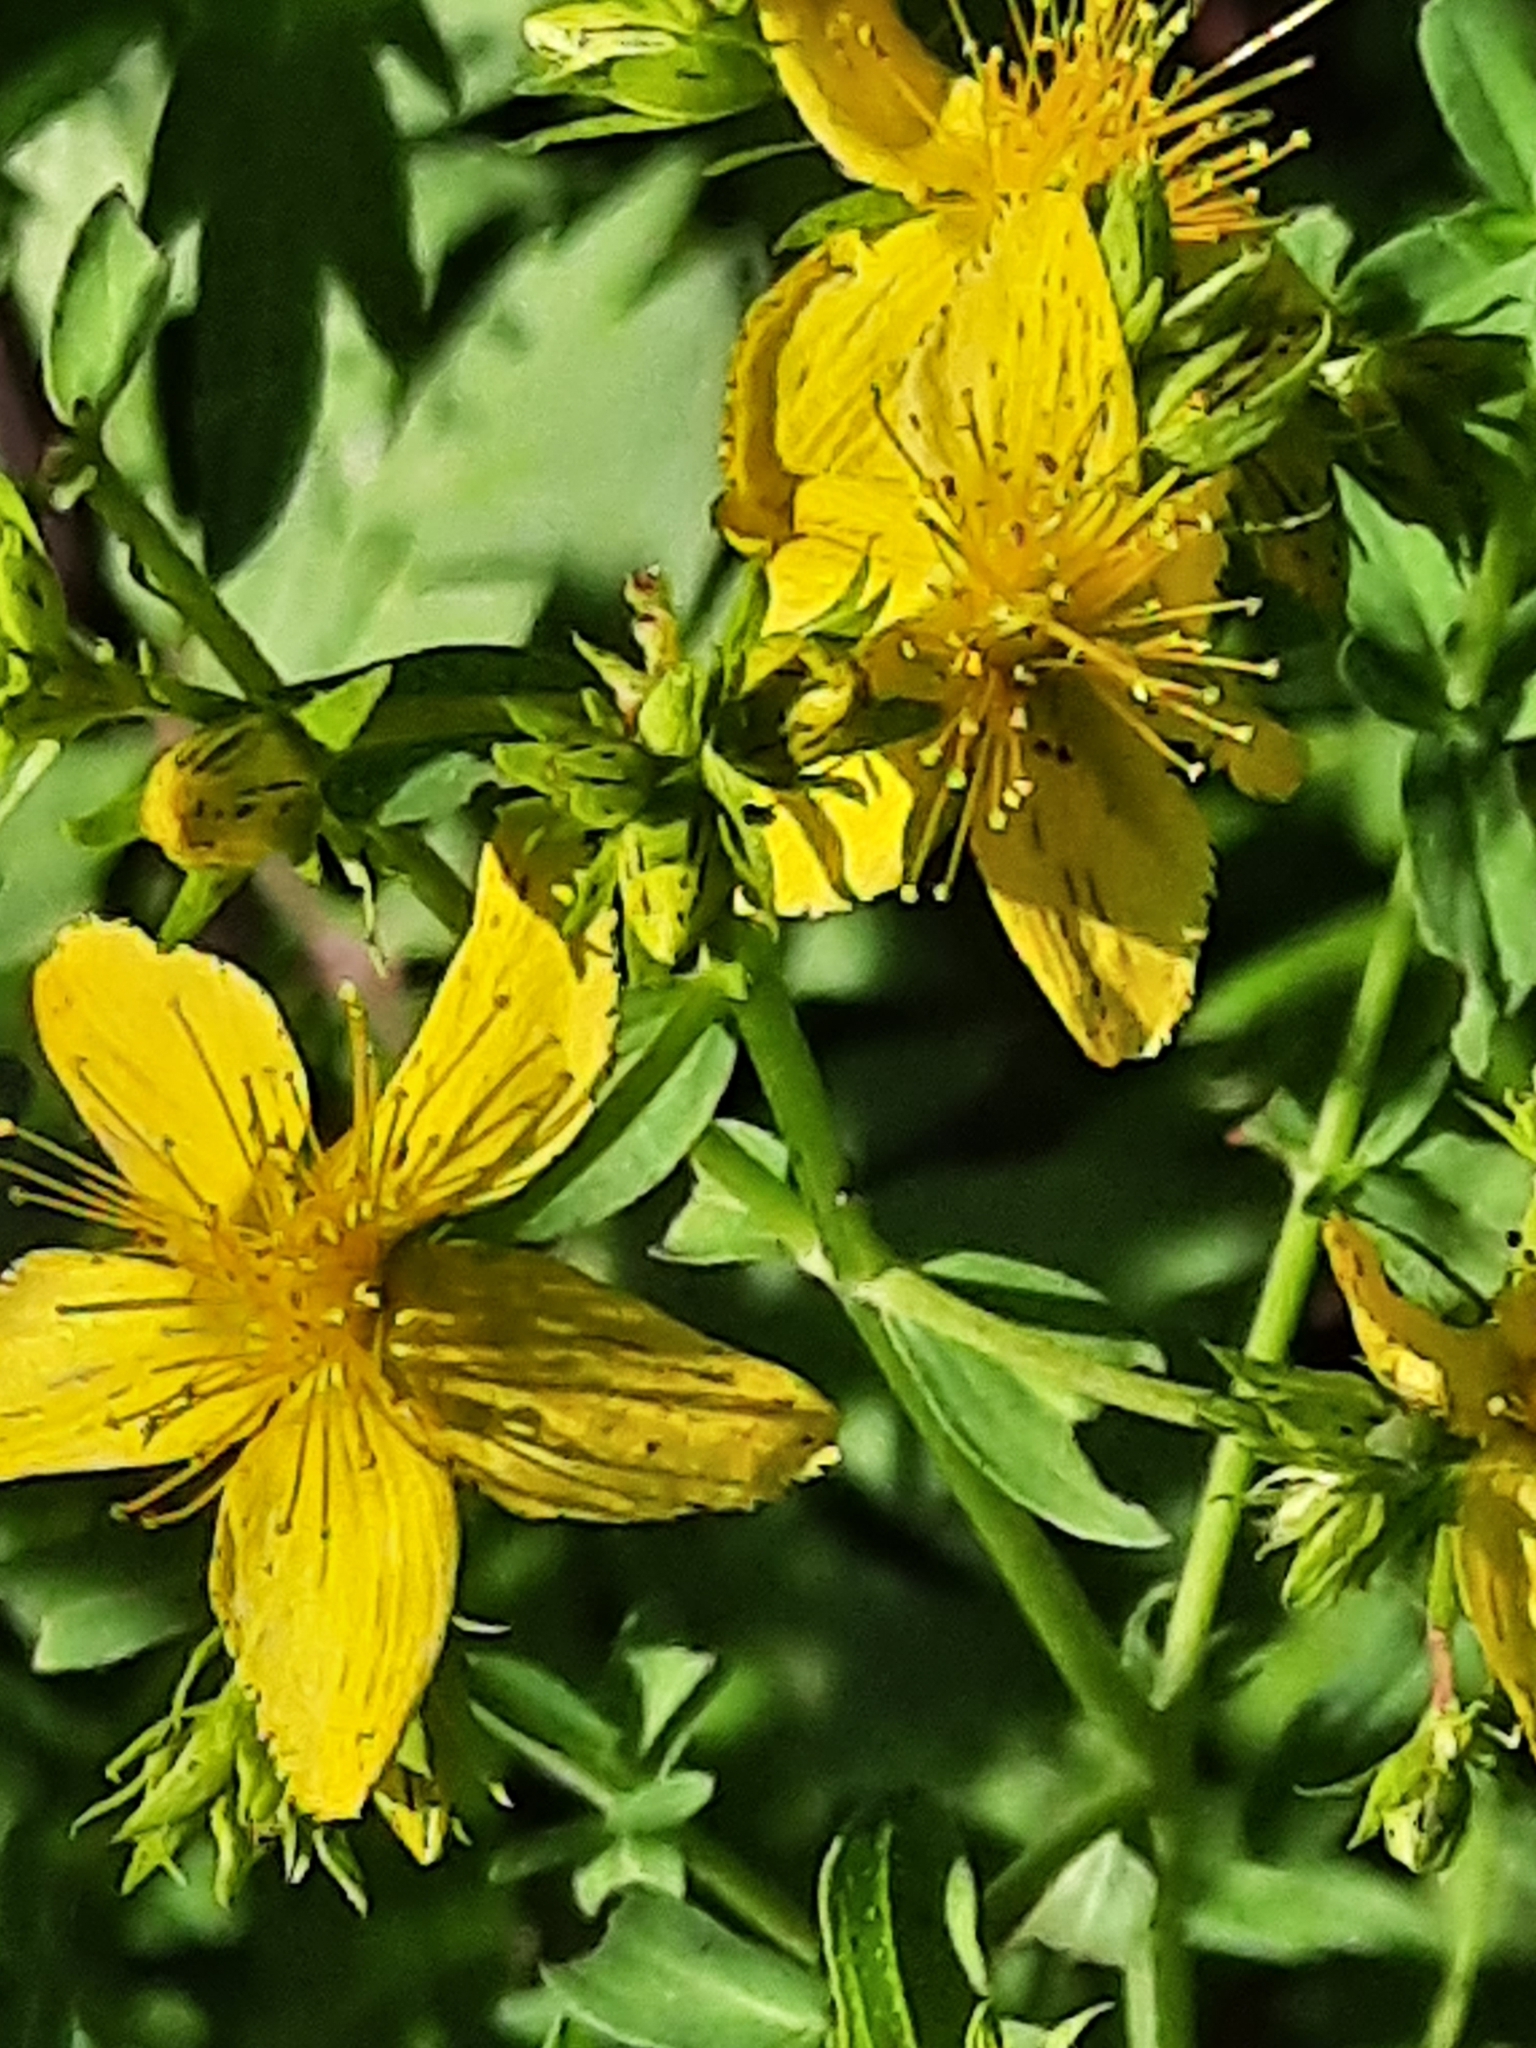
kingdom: Plantae
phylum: Tracheophyta
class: Magnoliopsida
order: Malpighiales
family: Hypericaceae
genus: Hypericum
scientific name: Hypericum punctatum
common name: Spotted st. john's-wort
